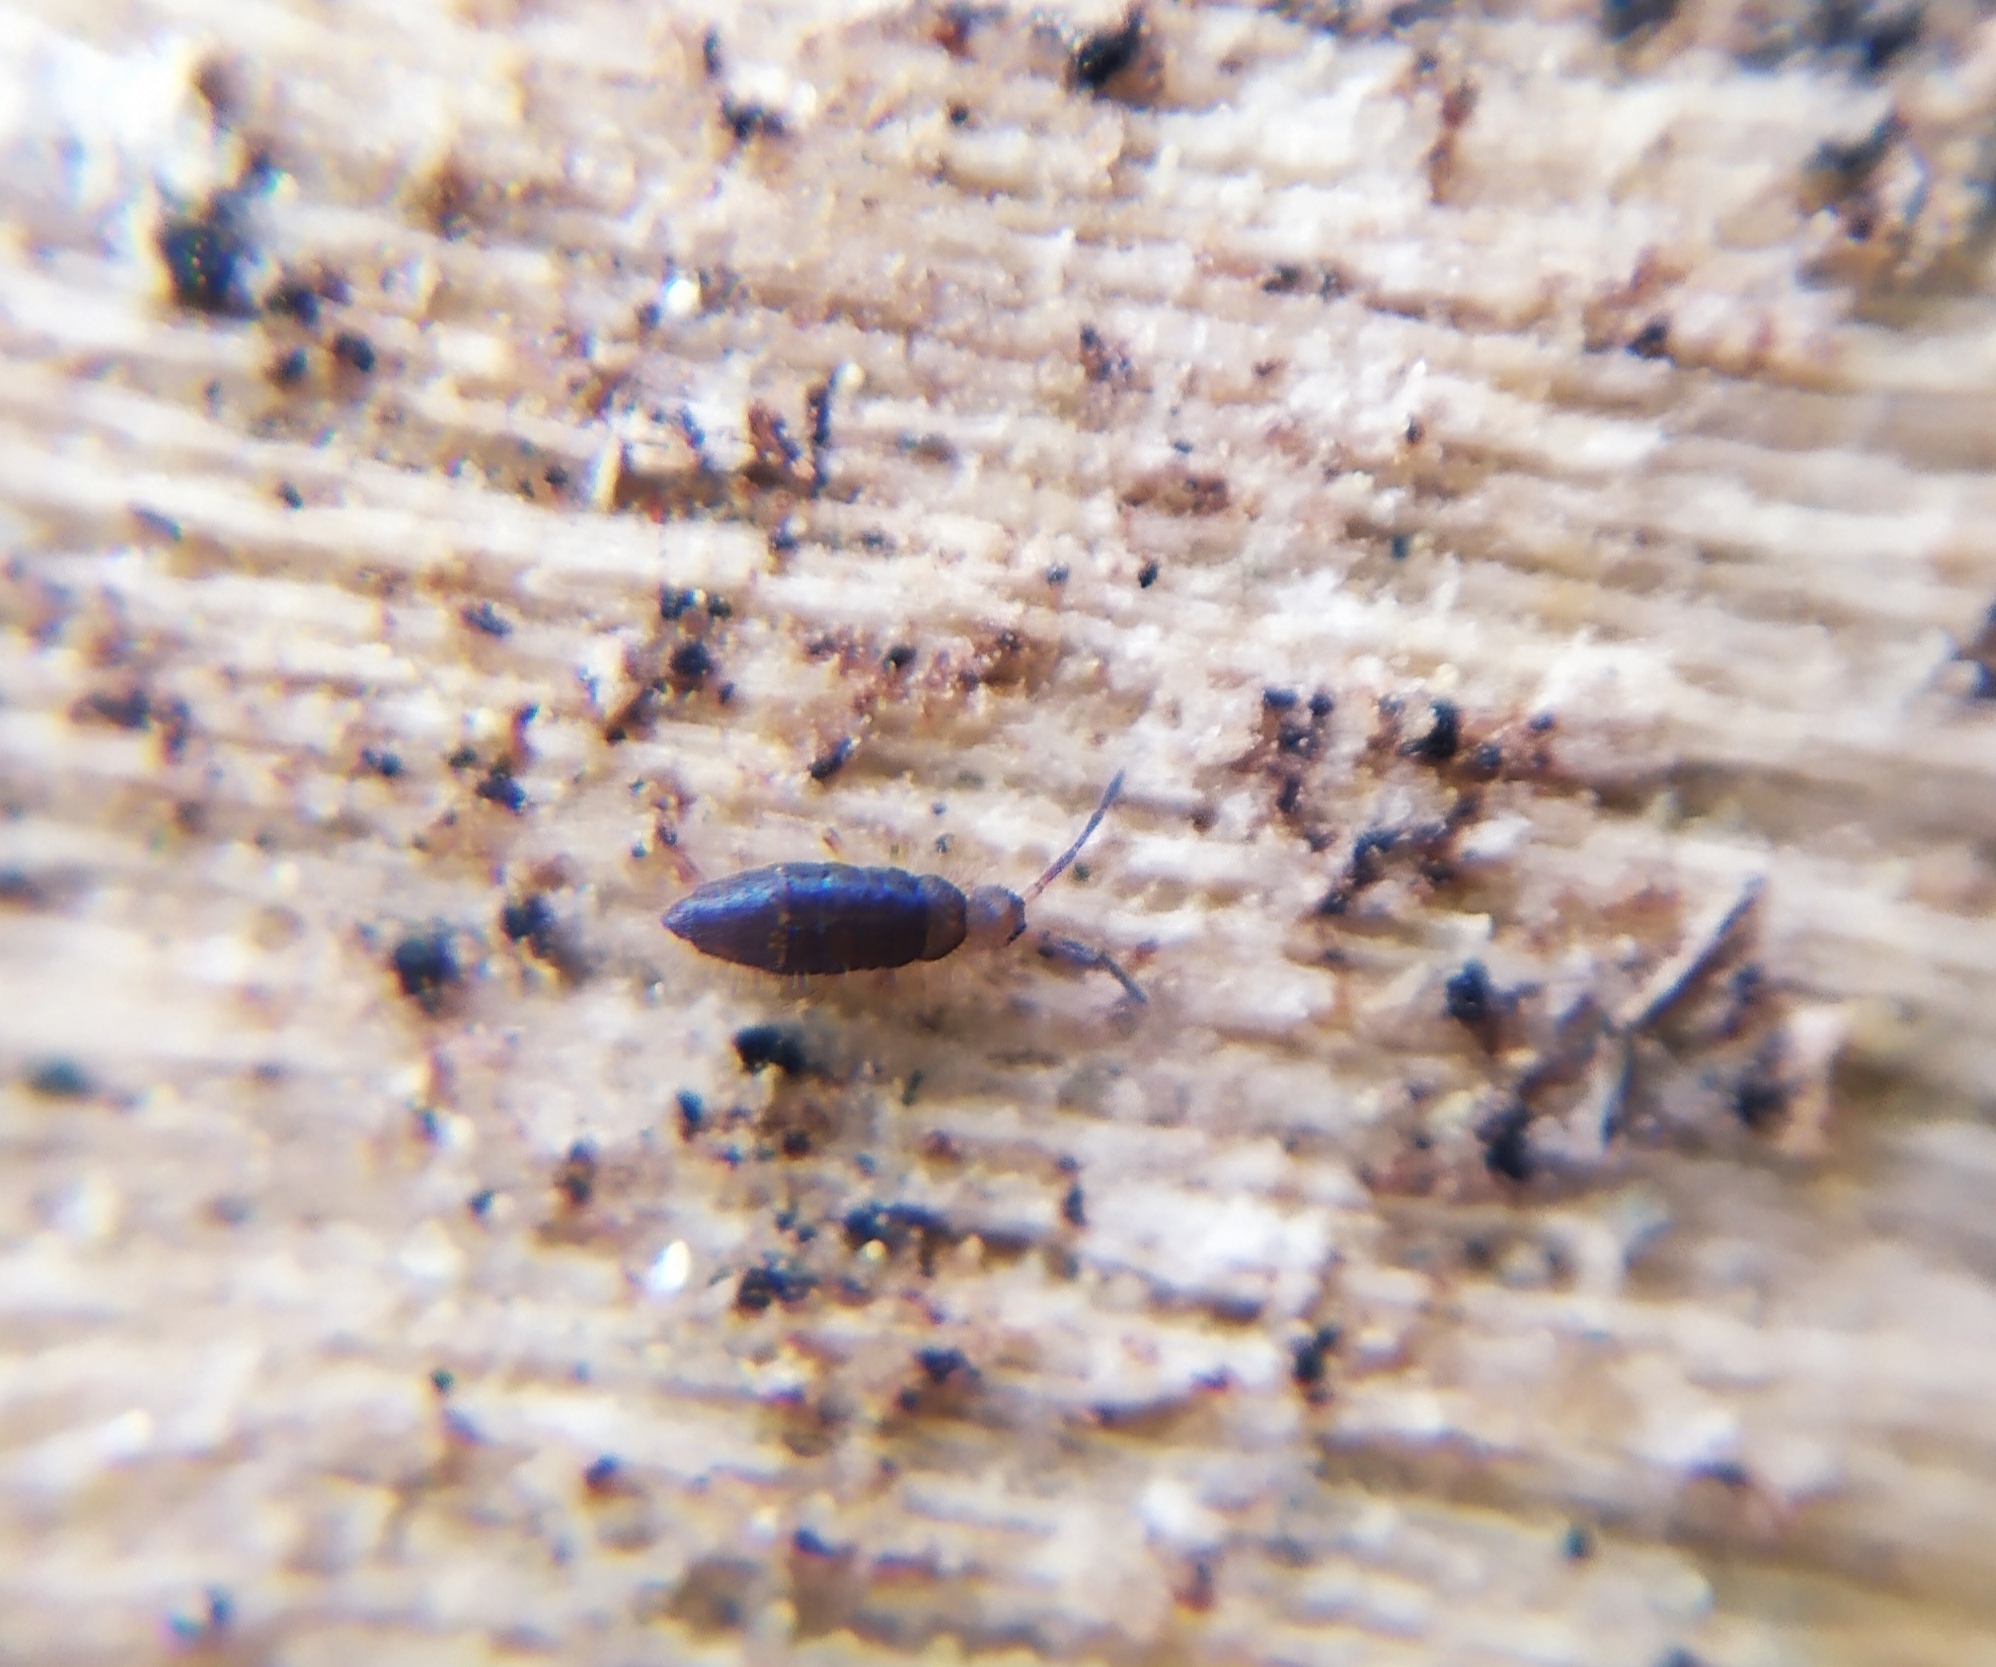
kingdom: Animalia
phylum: Arthropoda
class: Collembola
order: Entomobryomorpha
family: Entomobryidae
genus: Willowsia
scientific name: Willowsia buski
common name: Damp grain springtail
